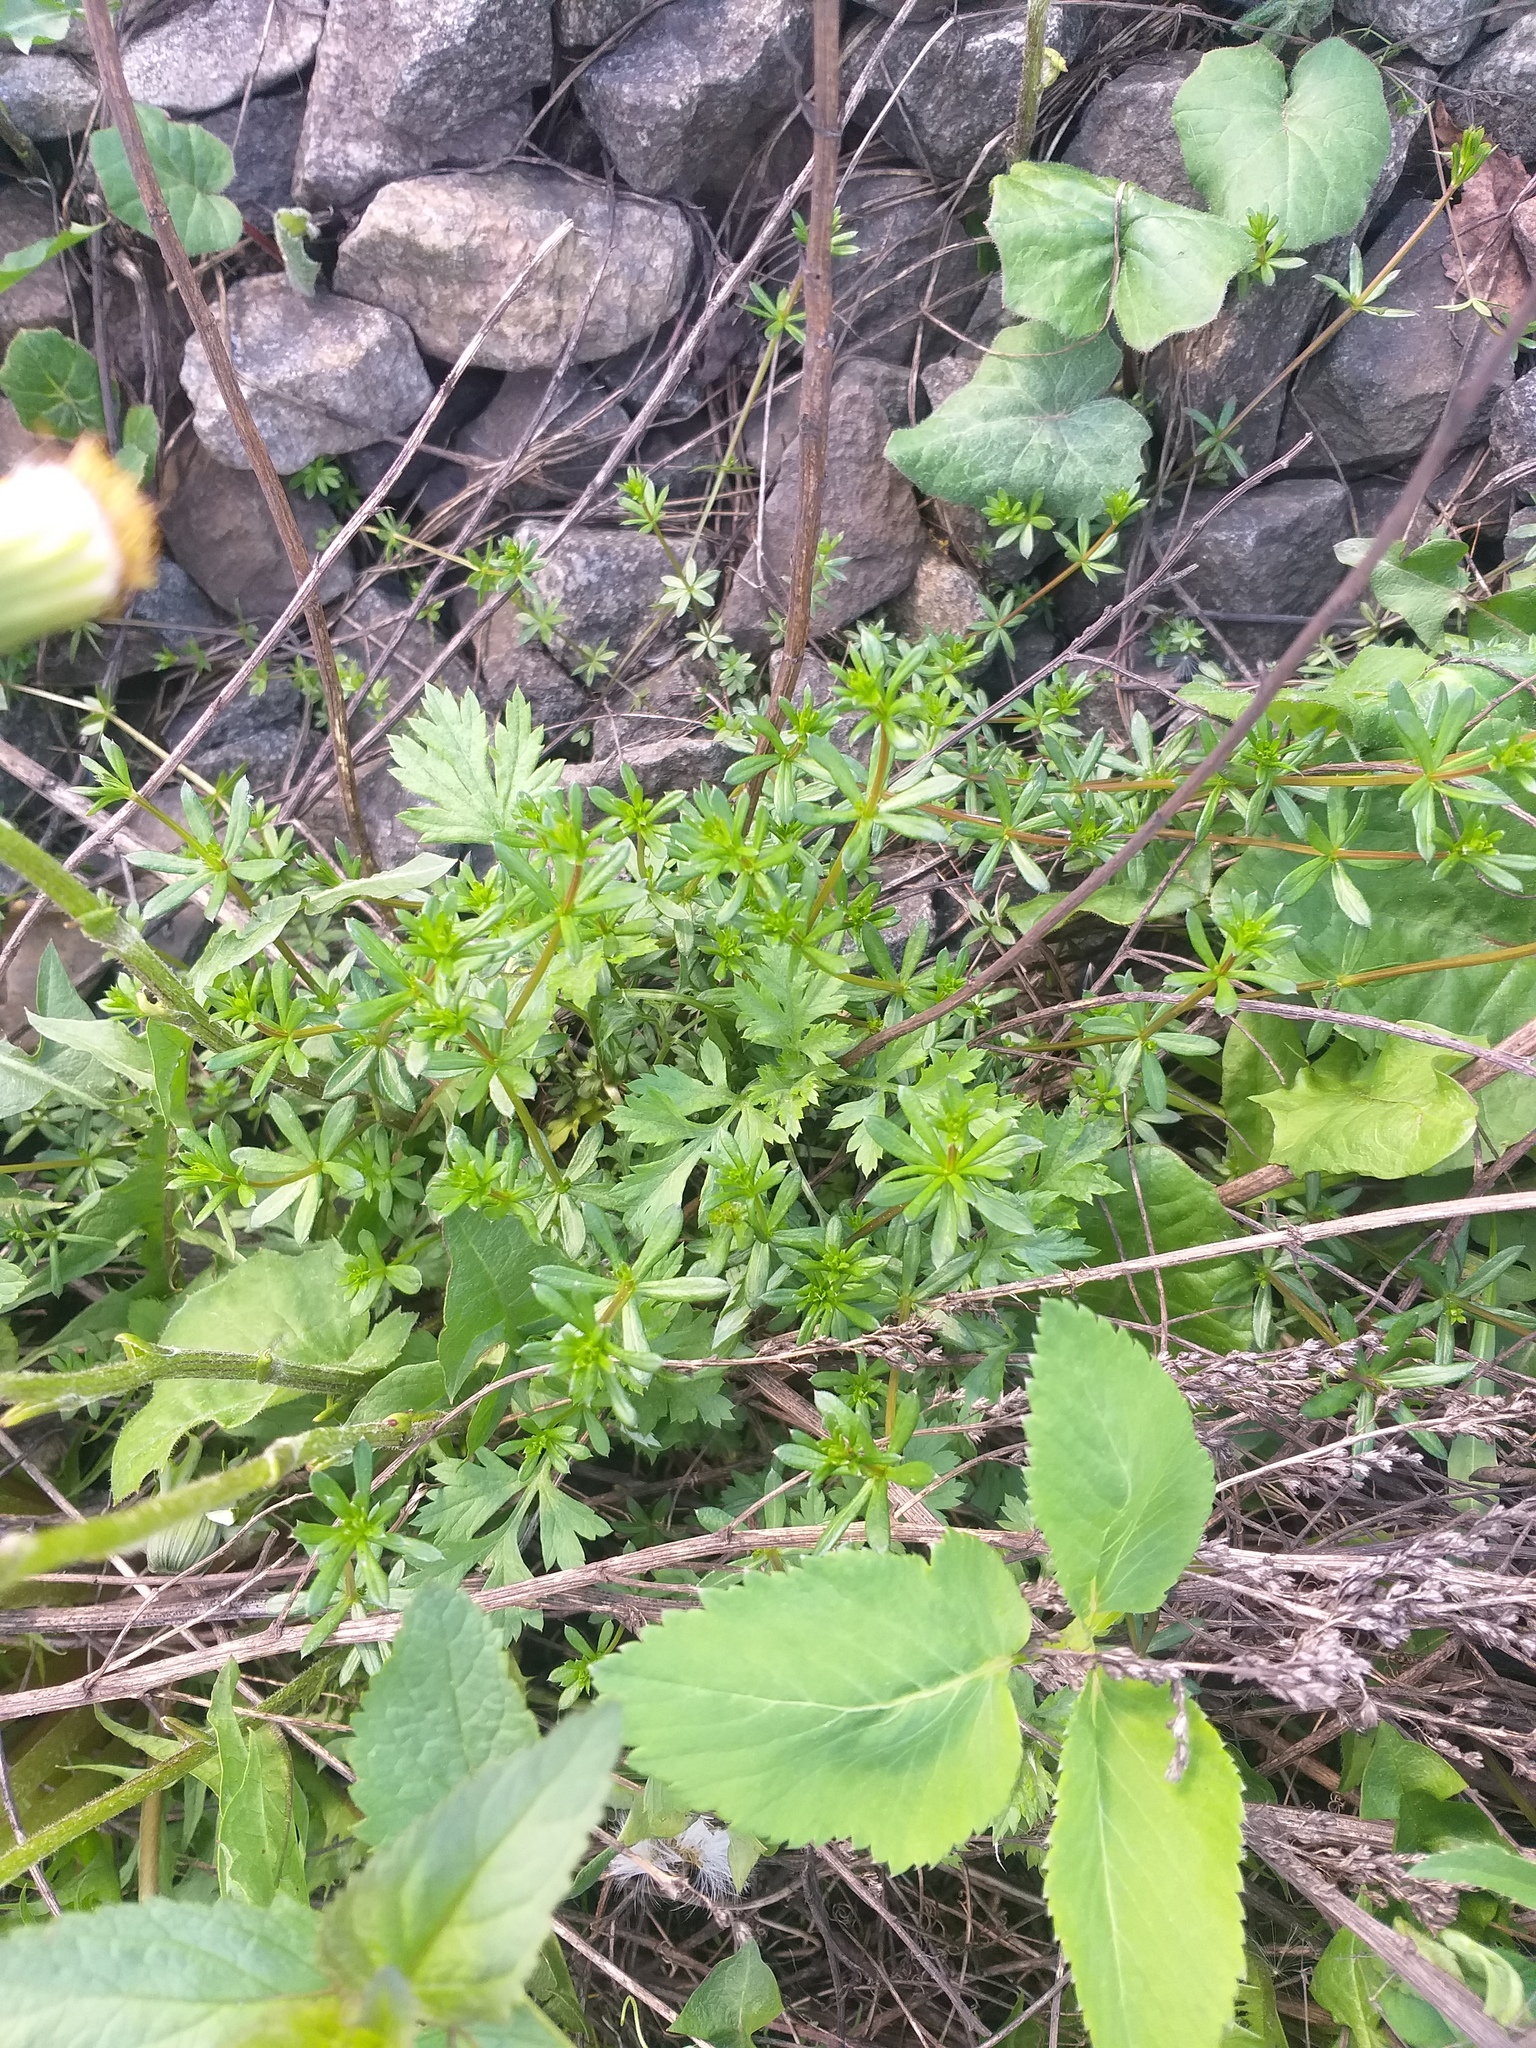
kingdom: Plantae
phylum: Tracheophyta
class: Magnoliopsida
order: Gentianales
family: Rubiaceae
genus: Galium
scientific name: Galium mollugo
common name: Hedge bedstraw
